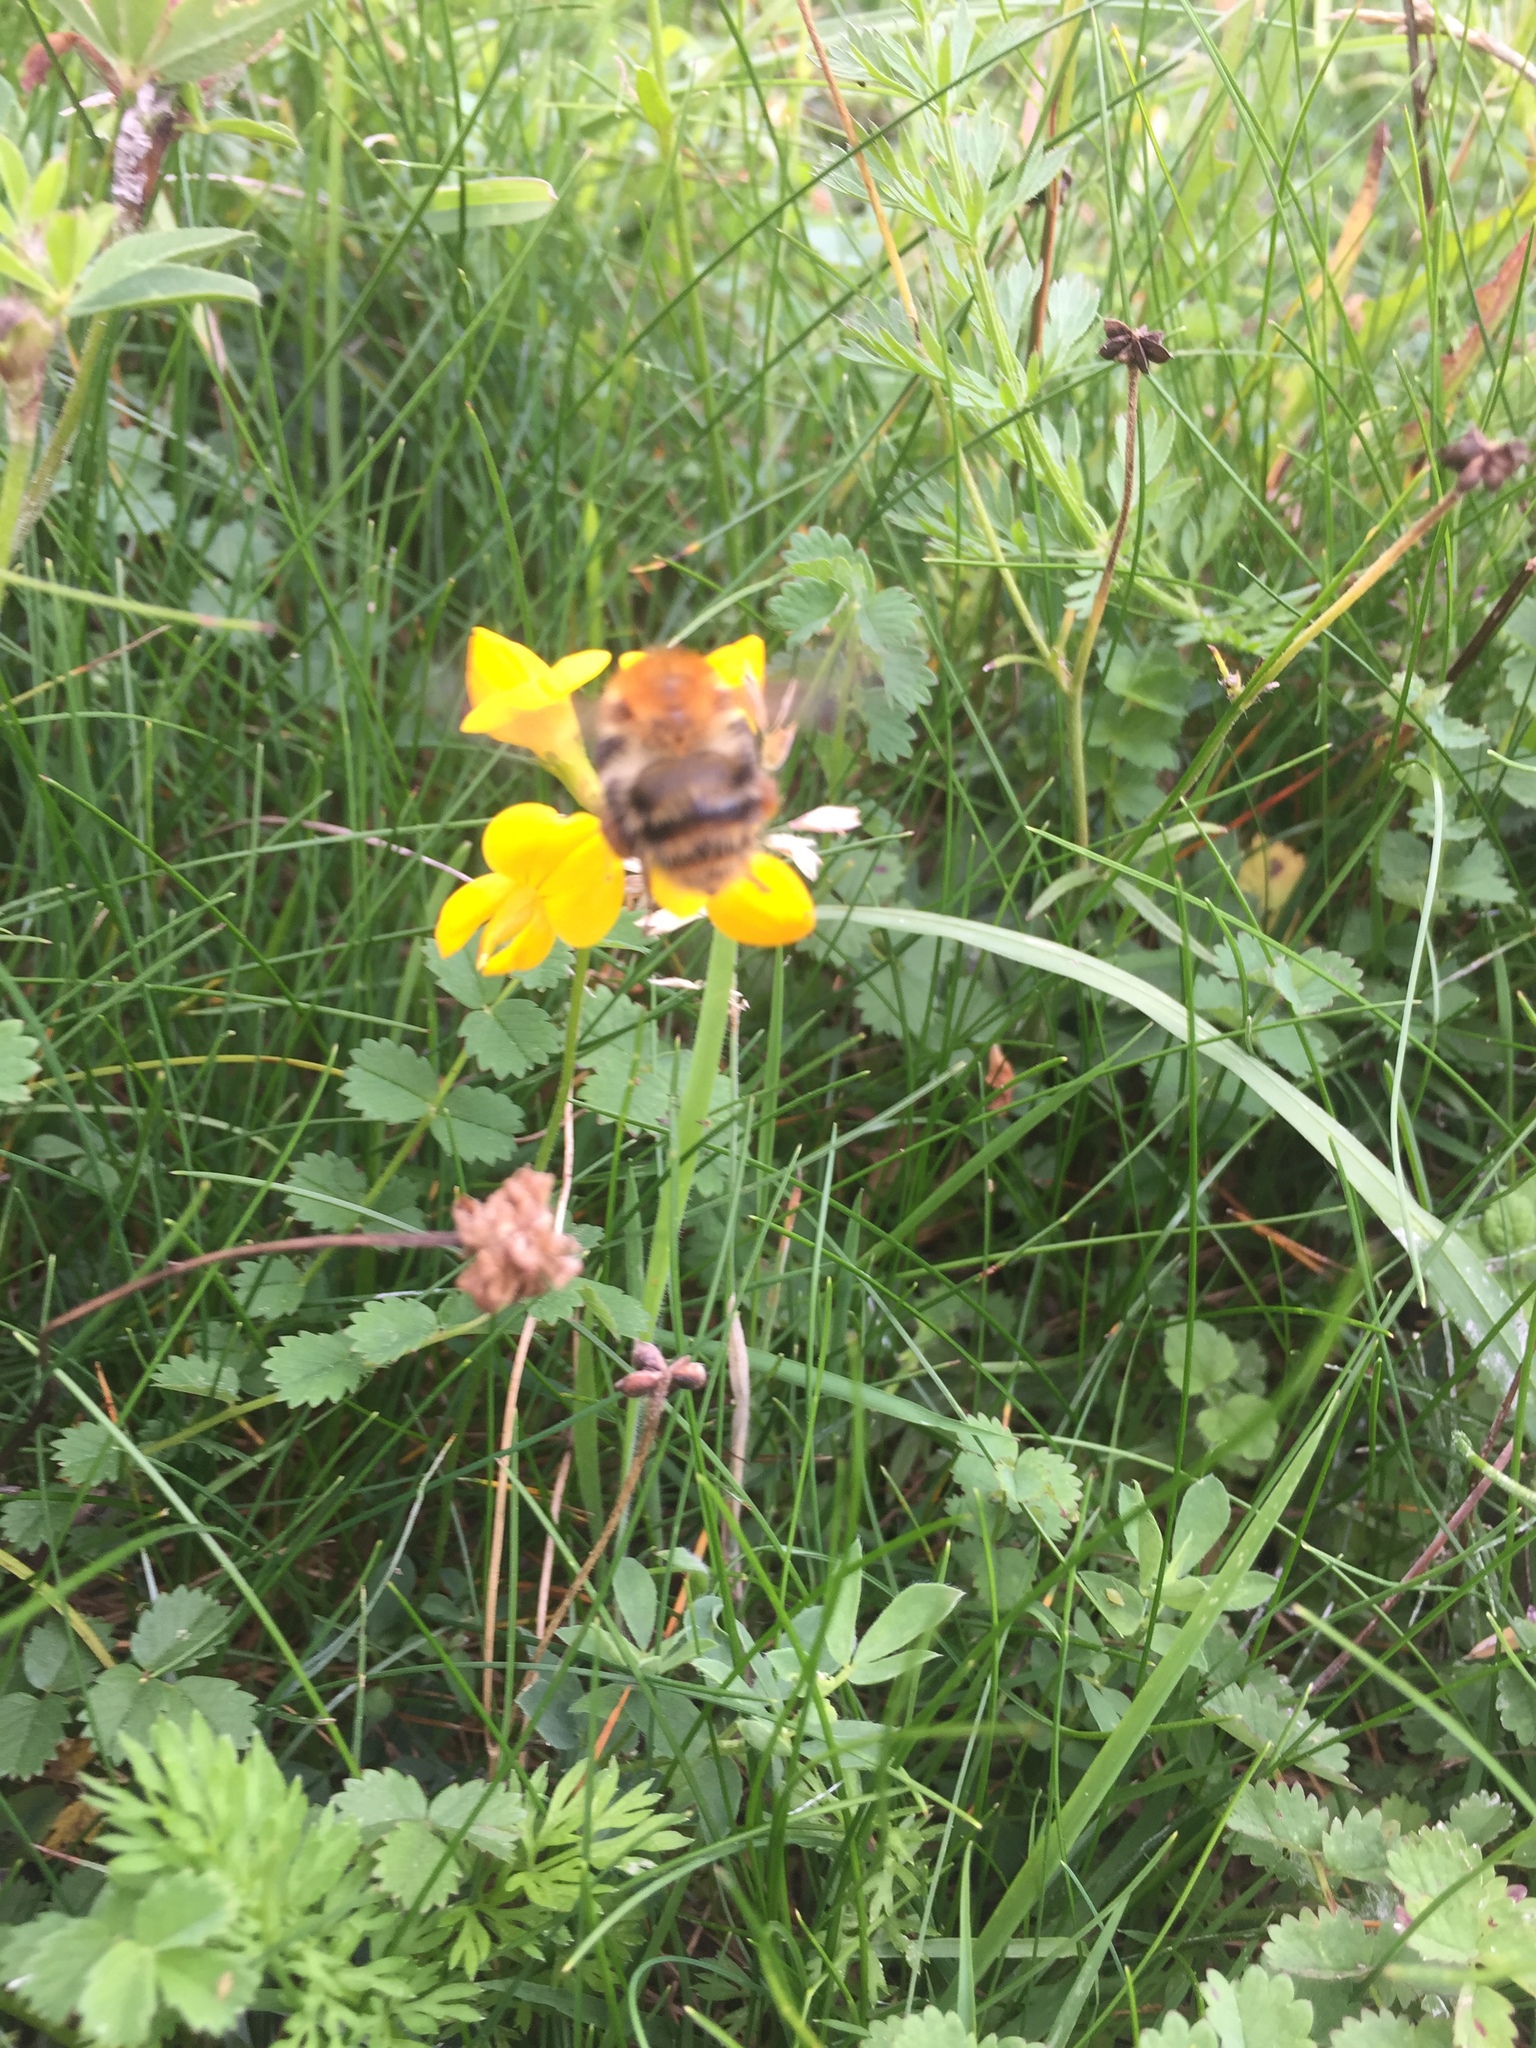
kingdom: Plantae
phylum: Tracheophyta
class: Magnoliopsida
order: Dipsacales
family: Caprifoliaceae
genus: Knautia
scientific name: Knautia arvensis
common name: Field scabiosa
